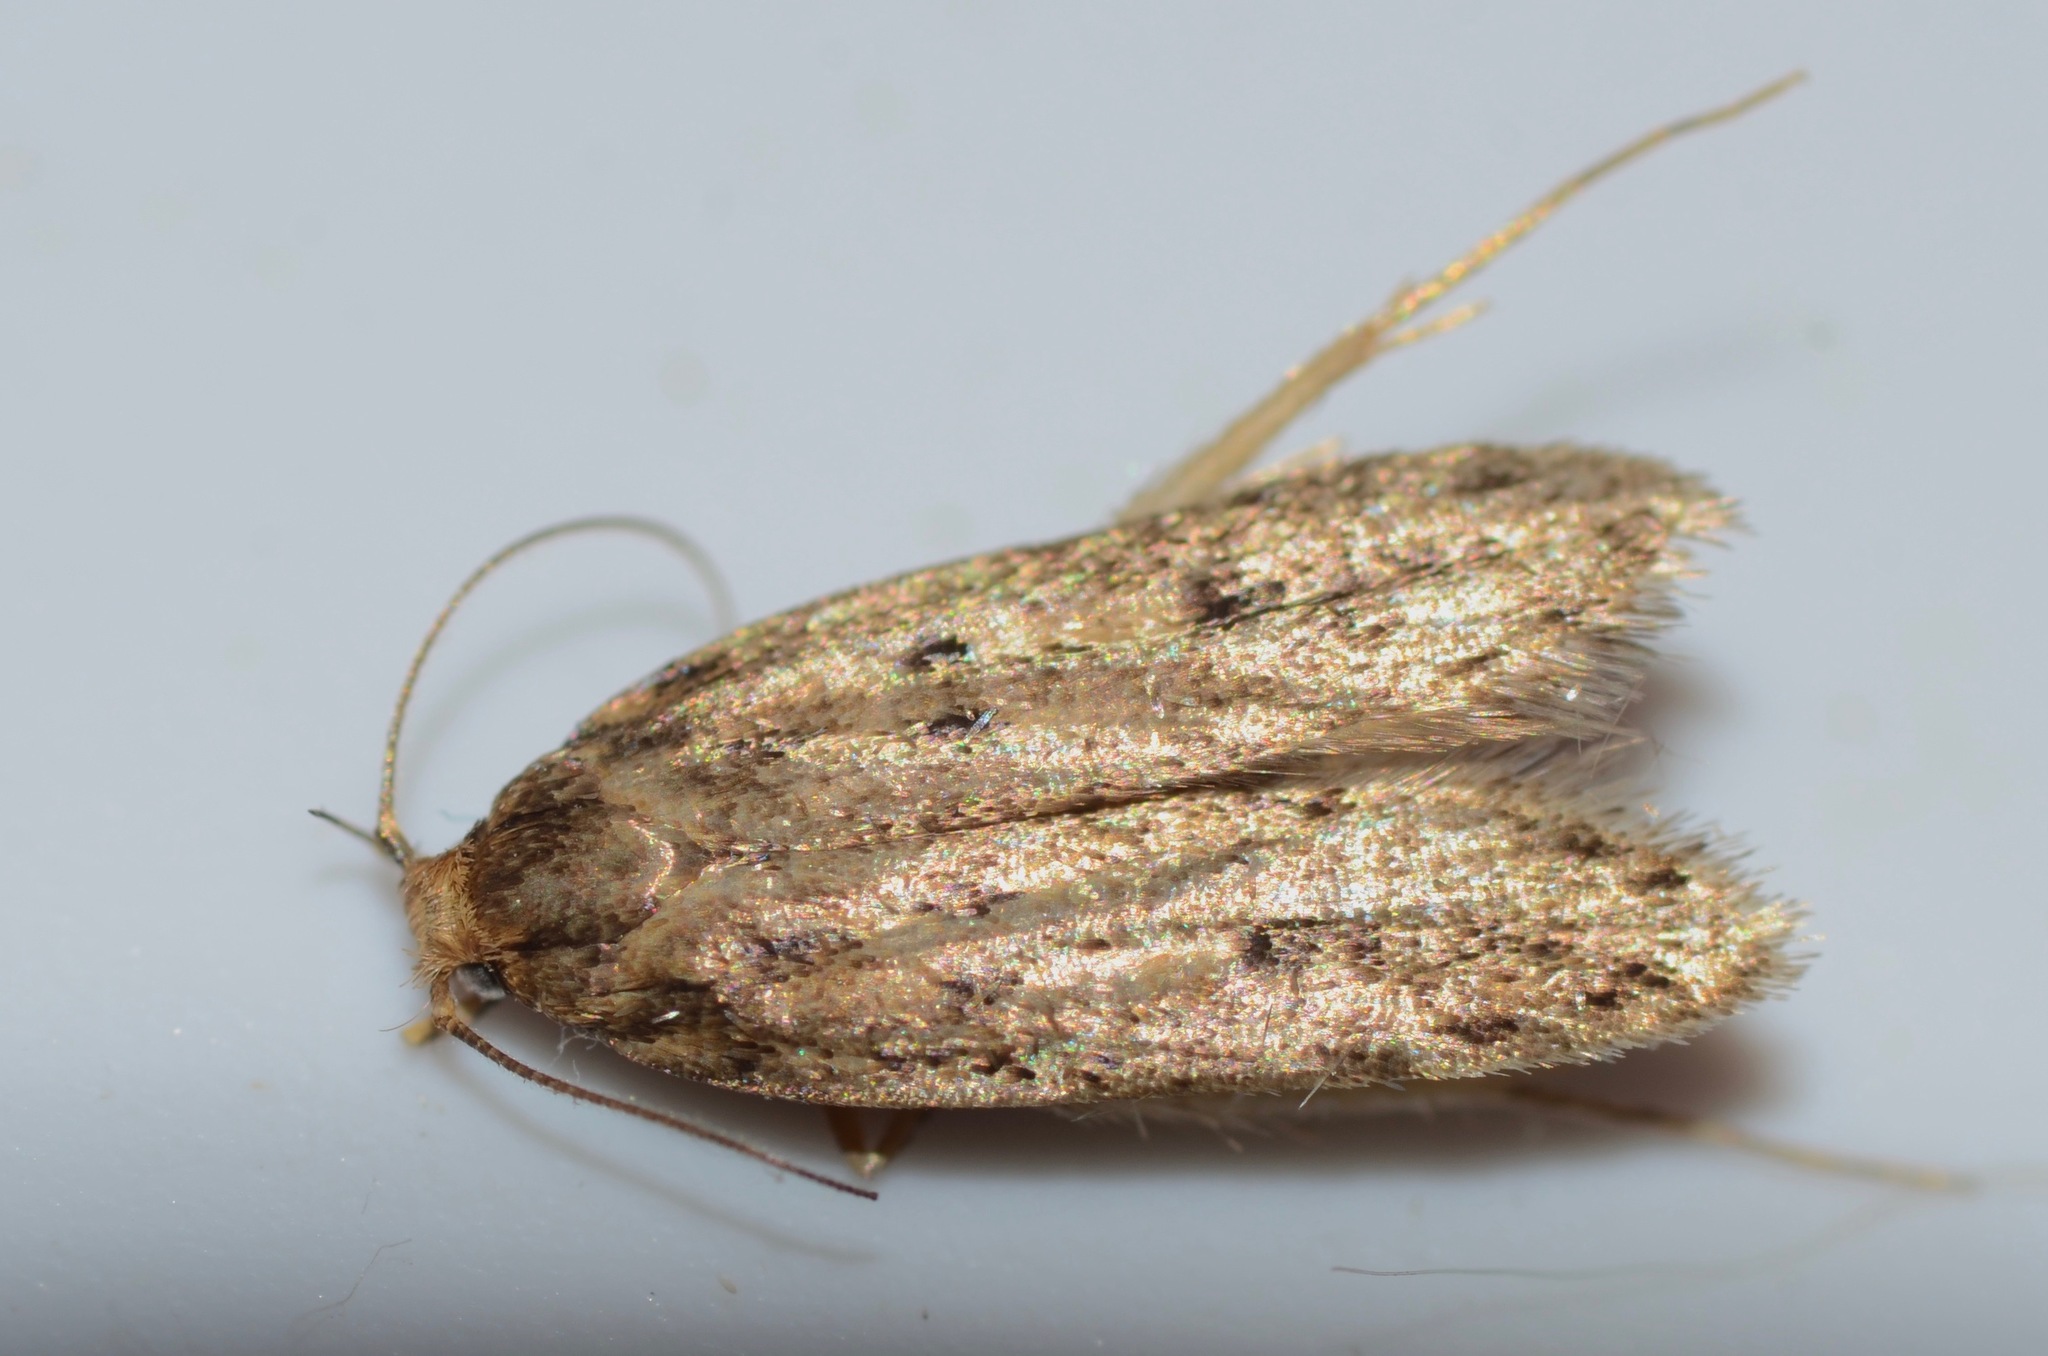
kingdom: Animalia
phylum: Arthropoda
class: Insecta
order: Lepidoptera
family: Oecophoridae
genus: Hofmannophila
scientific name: Hofmannophila pseudospretella
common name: Brown house moth
